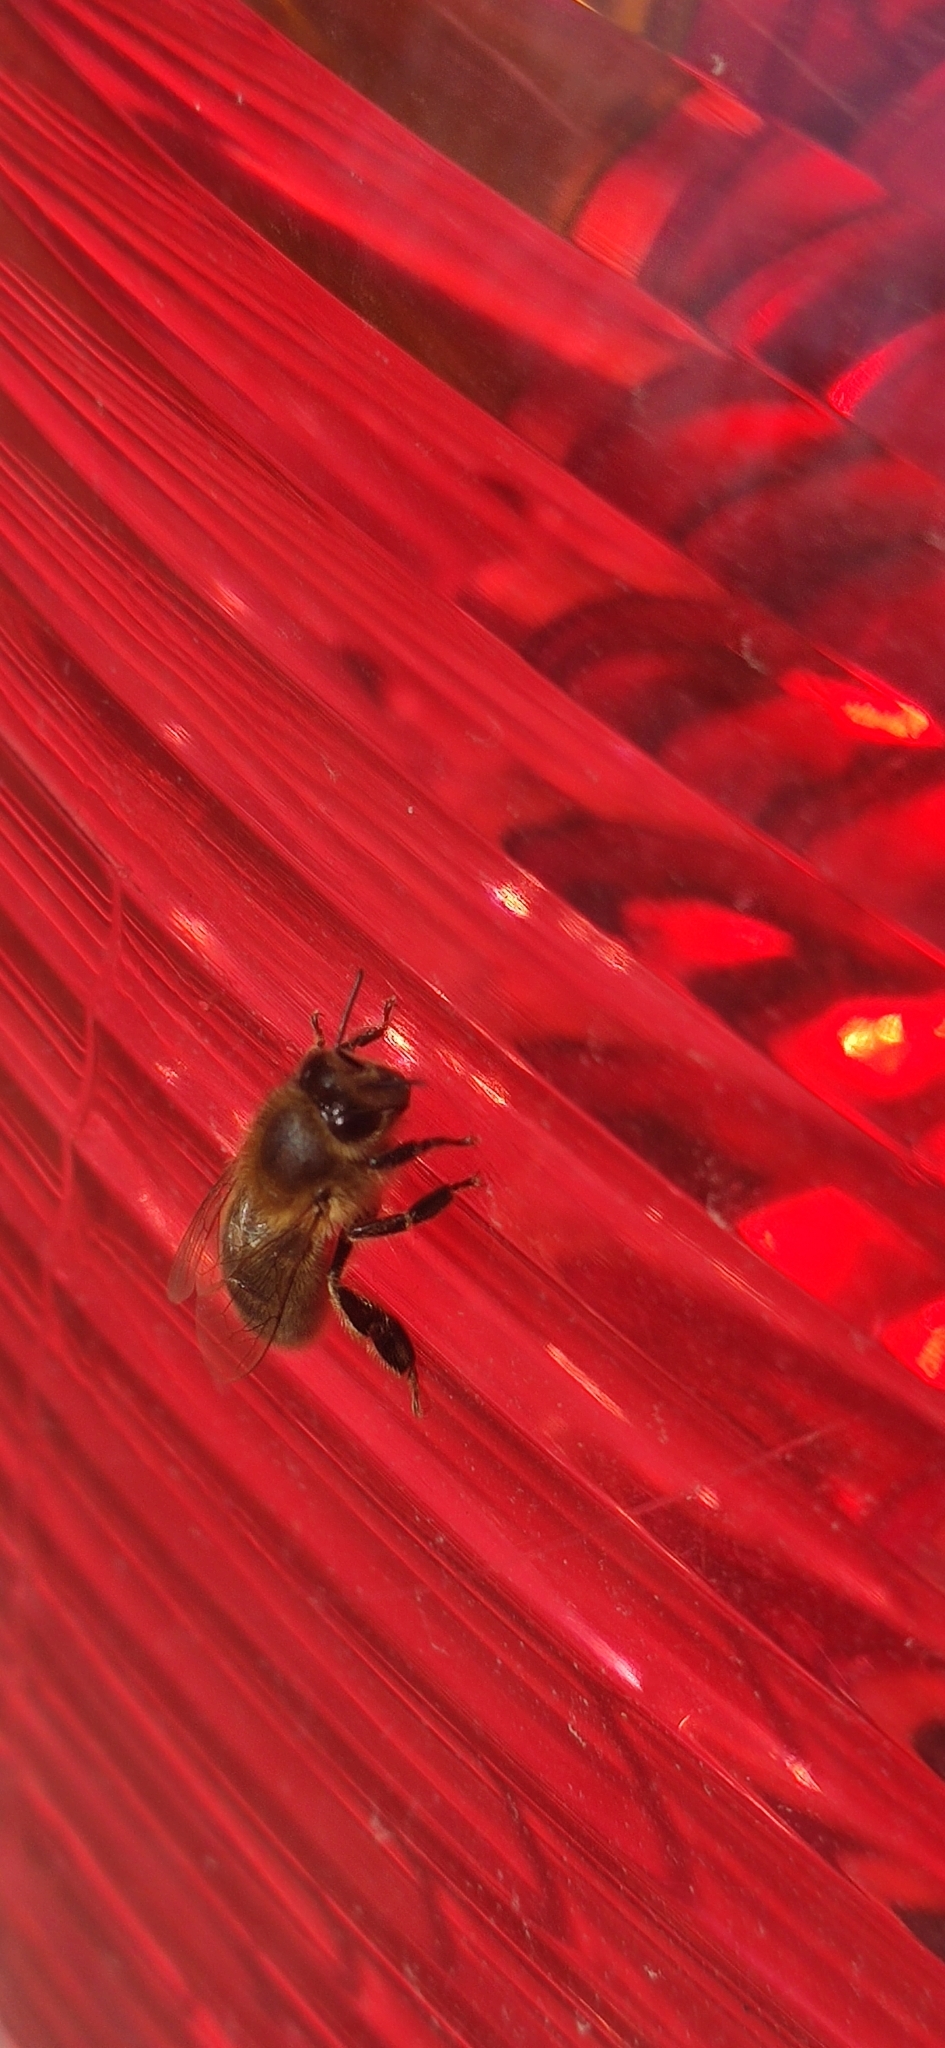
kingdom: Animalia
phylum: Arthropoda
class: Insecta
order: Hymenoptera
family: Apidae
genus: Apis
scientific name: Apis mellifera
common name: Honey bee
